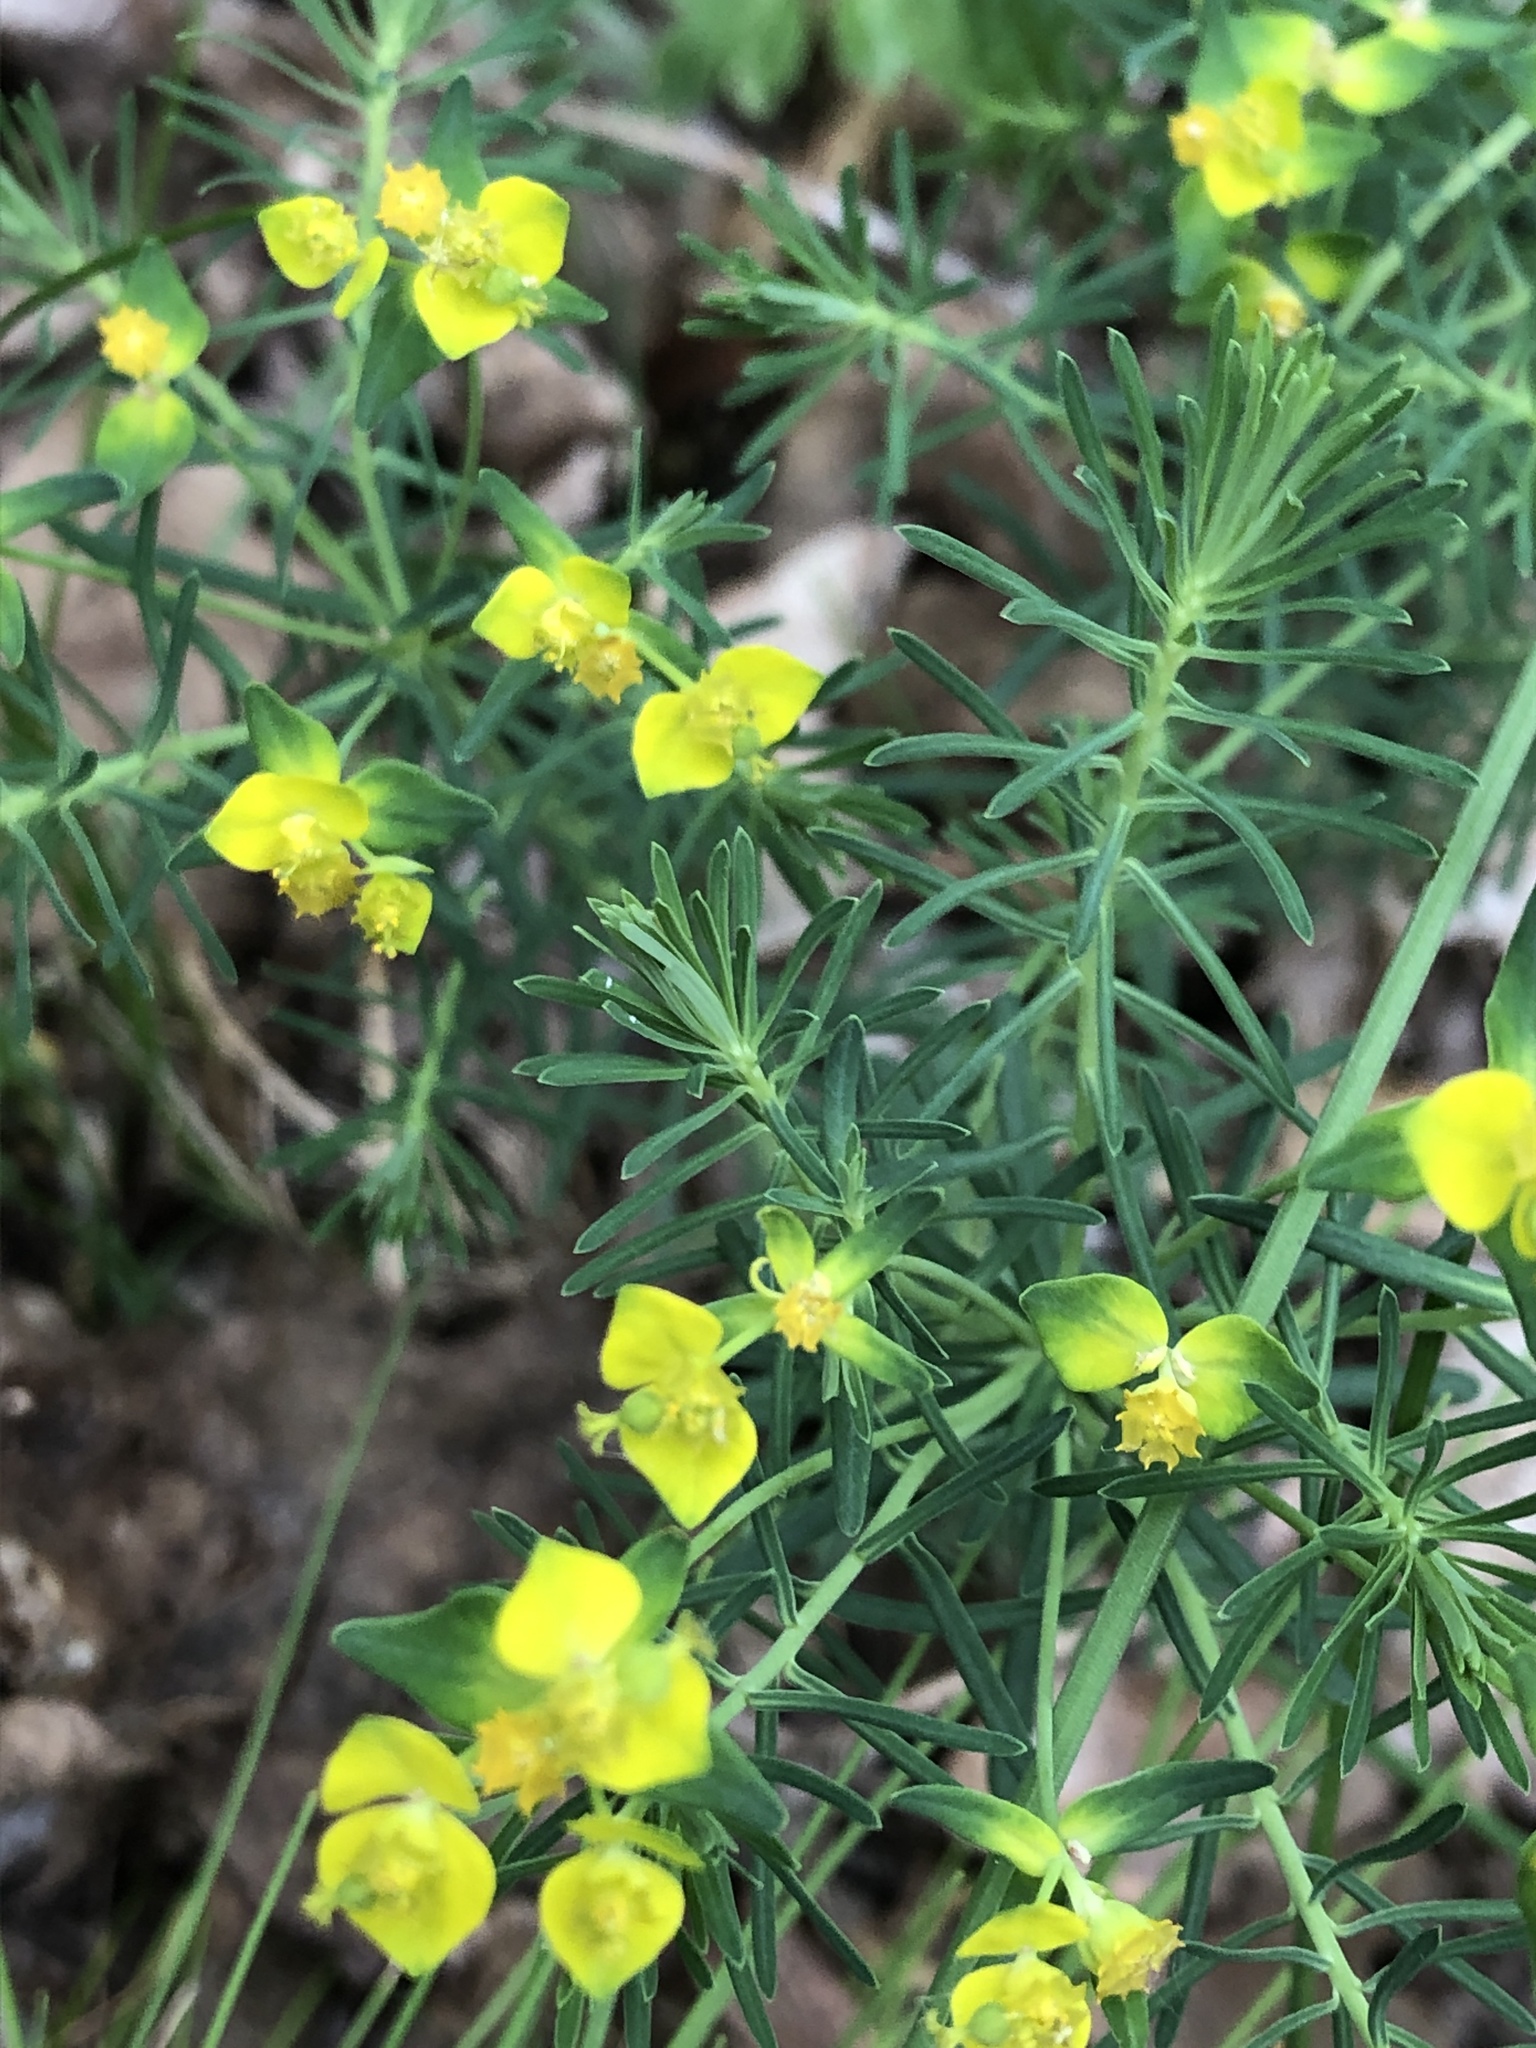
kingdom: Plantae
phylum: Tracheophyta
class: Magnoliopsida
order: Malpighiales
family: Euphorbiaceae
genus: Euphorbia
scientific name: Euphorbia cyparissias
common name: Cypress spurge
